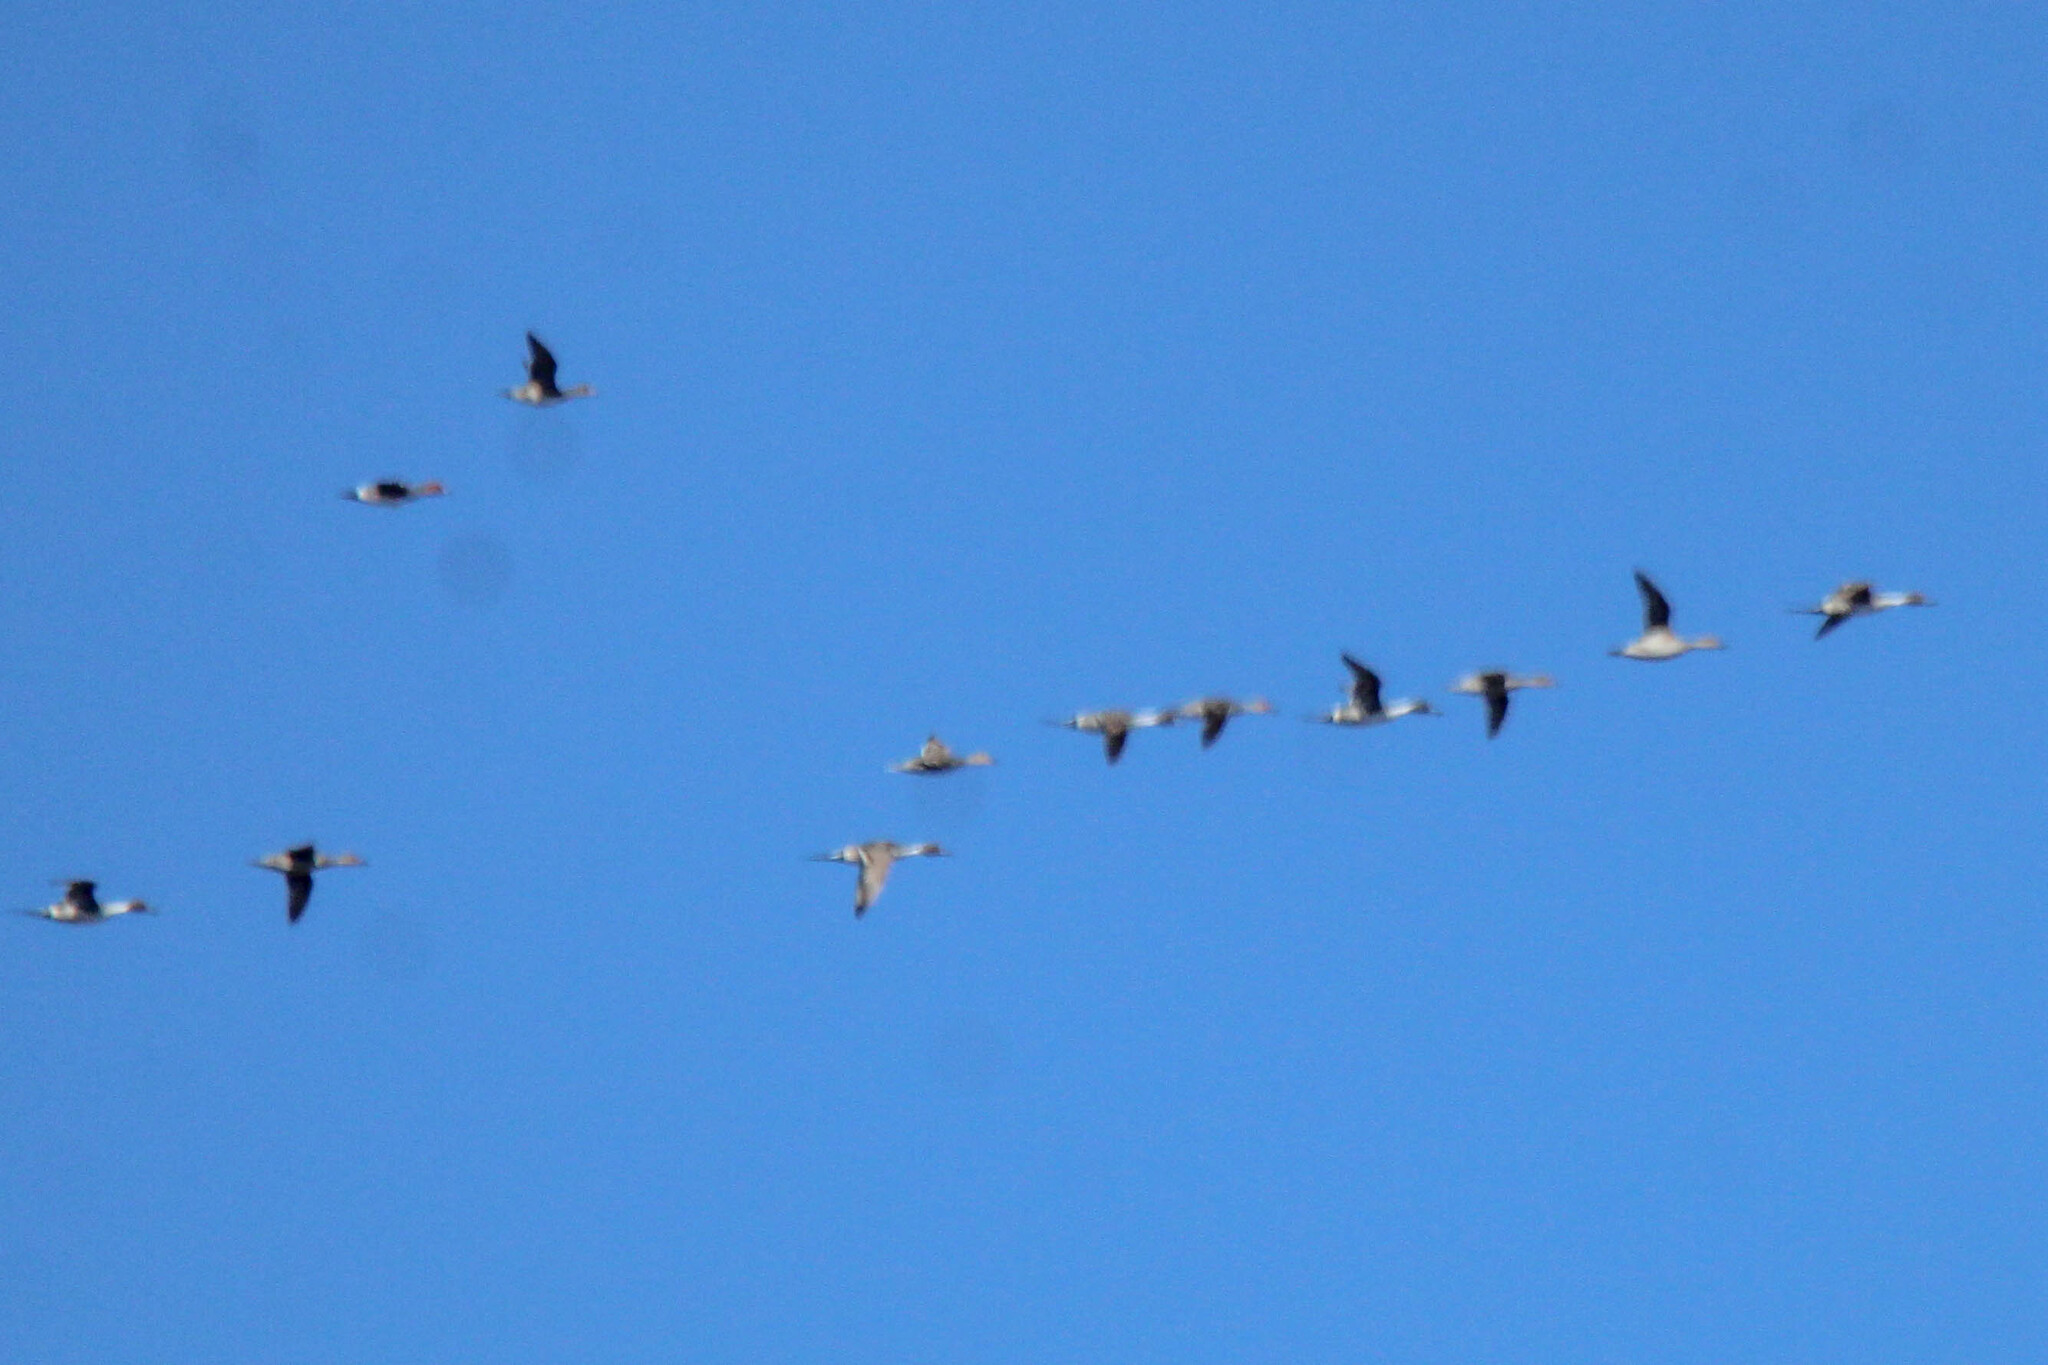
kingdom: Animalia
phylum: Chordata
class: Aves
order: Anseriformes
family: Anatidae
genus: Anas
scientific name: Anas acuta
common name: Northern pintail
